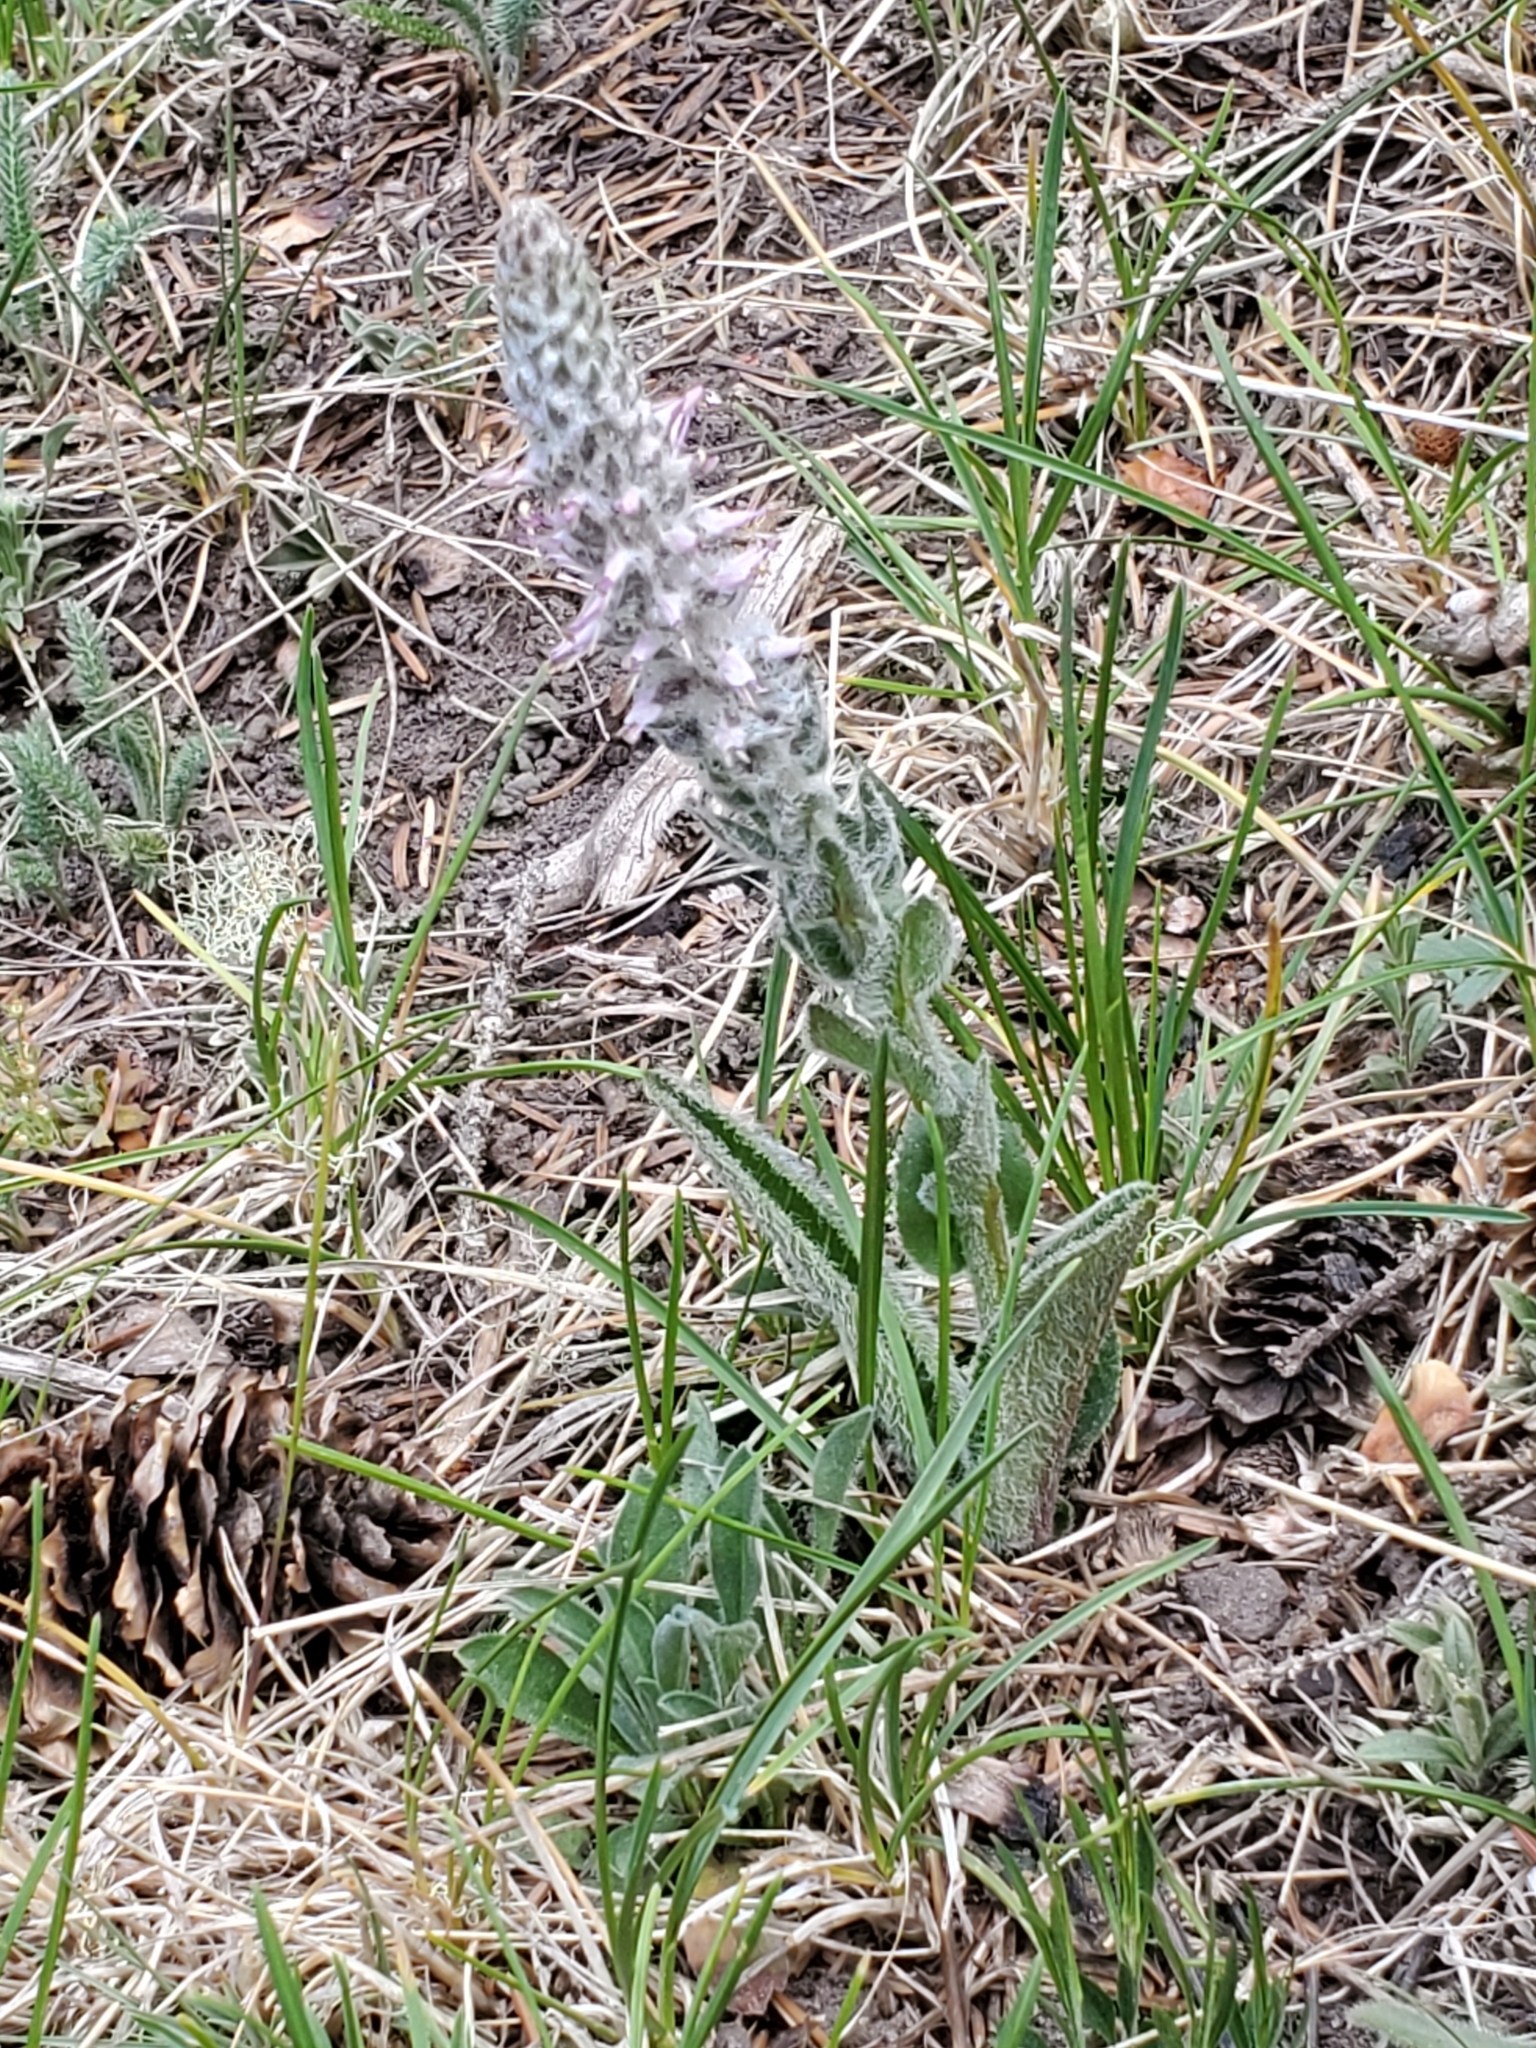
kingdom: Plantae
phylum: Tracheophyta
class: Magnoliopsida
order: Lamiales
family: Plantaginaceae
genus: Veronica
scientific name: Veronica plantaginea
